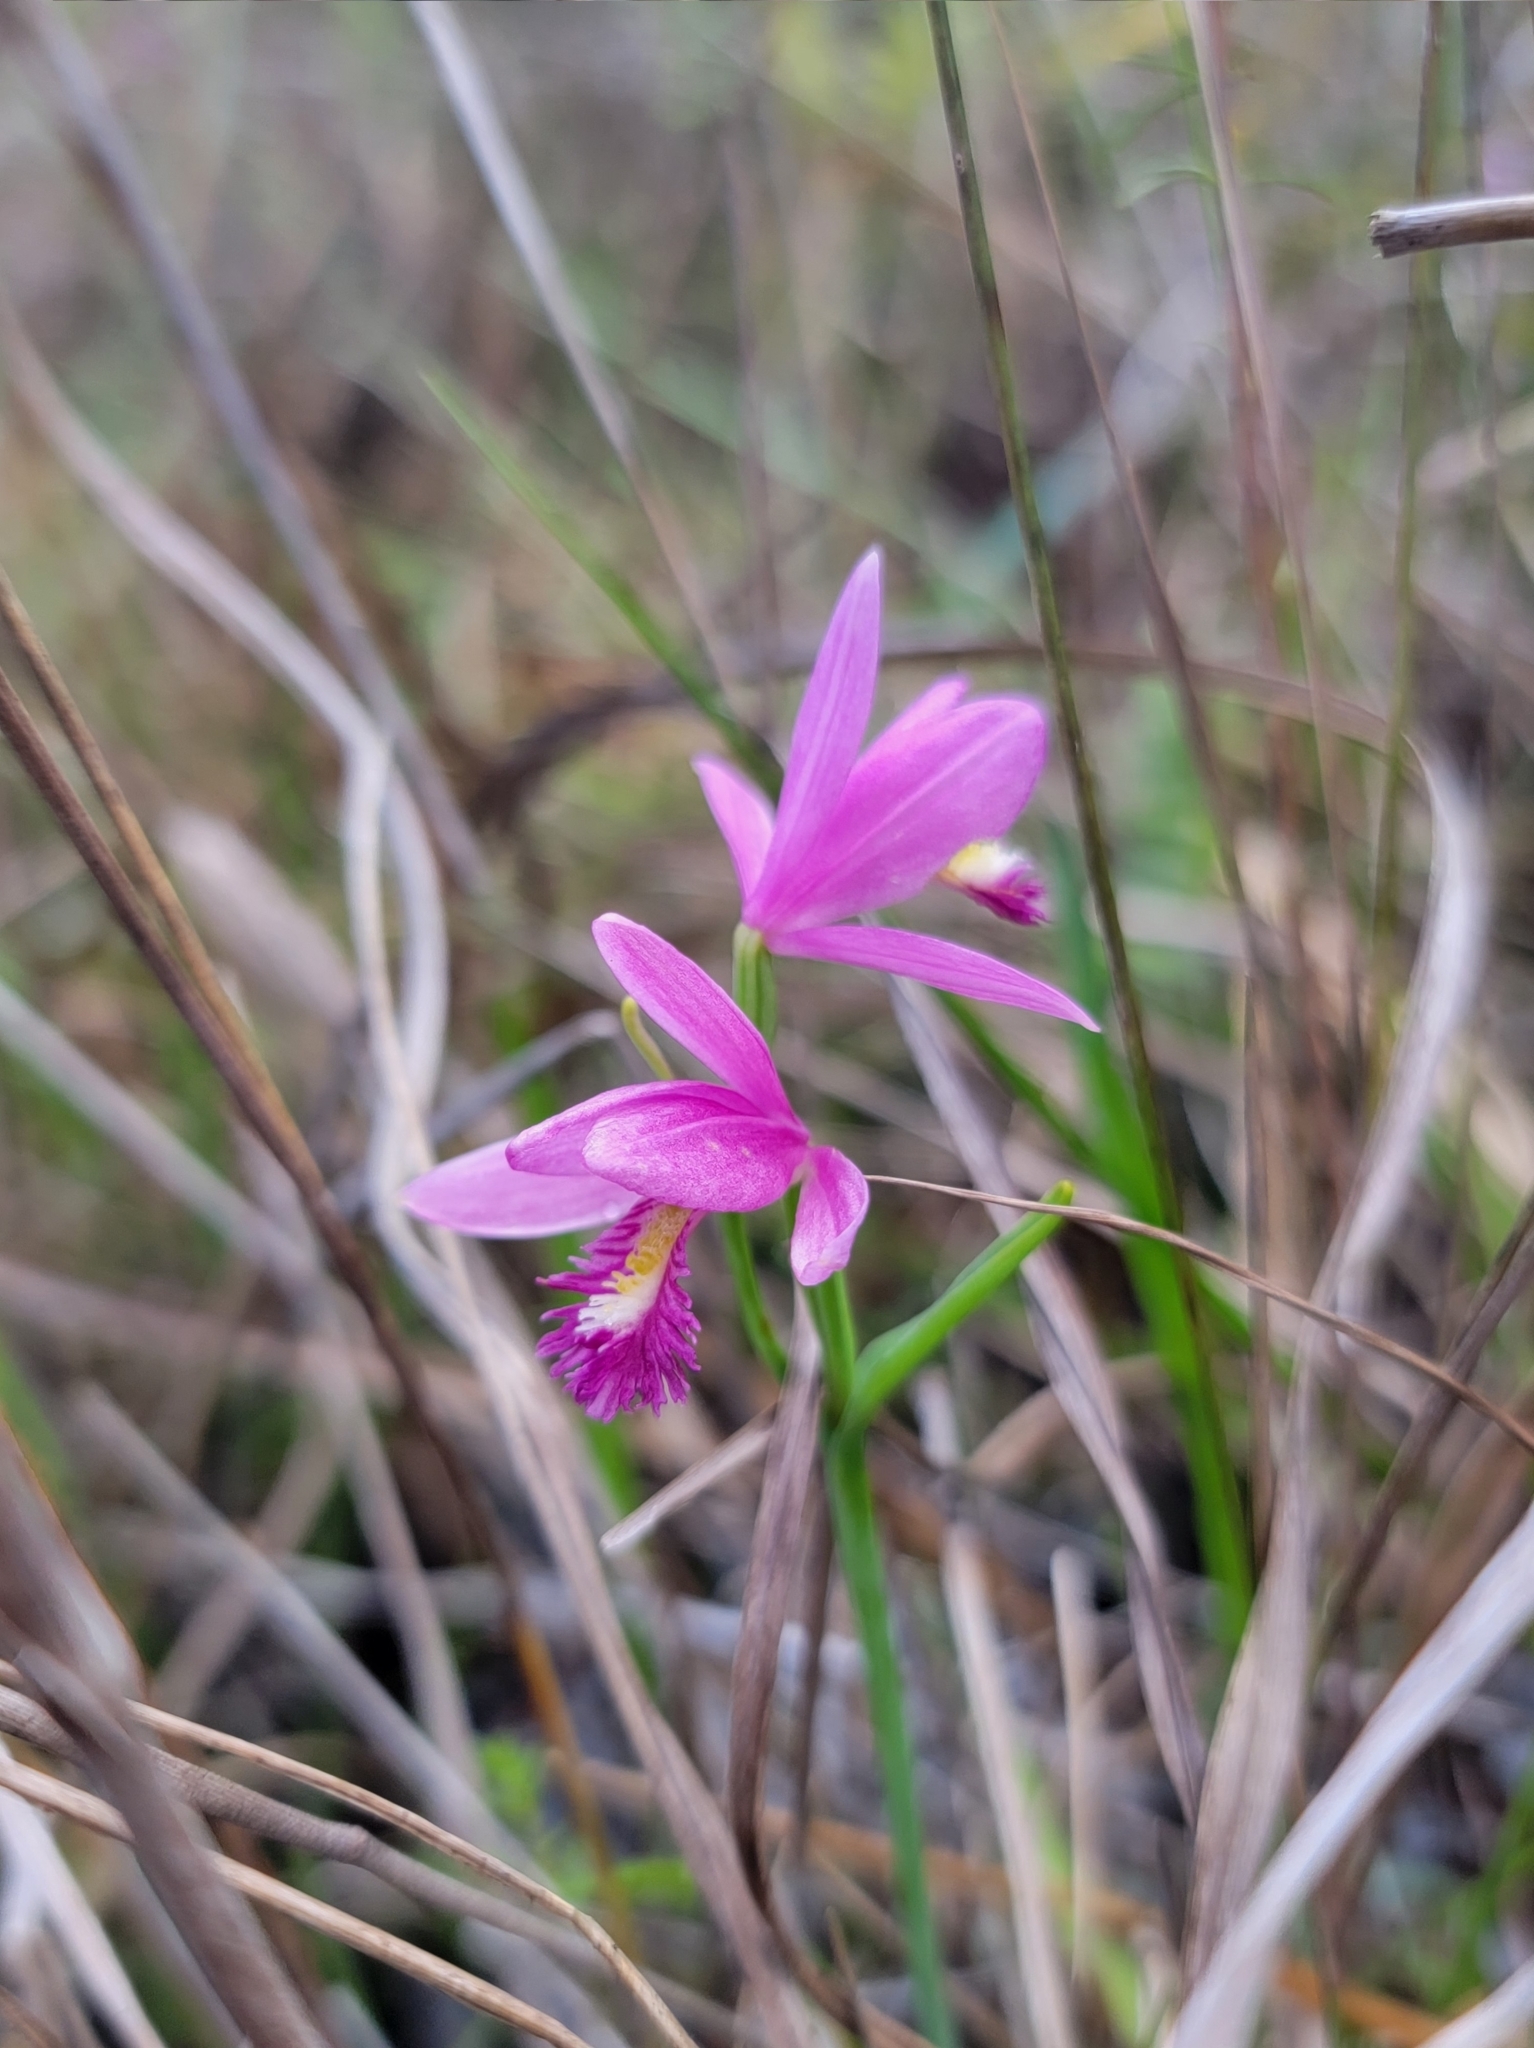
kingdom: Plantae
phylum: Tracheophyta
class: Liliopsida
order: Asparagales
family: Orchidaceae
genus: Pogonia
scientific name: Pogonia ophioglossoides
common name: Rose pogonia
